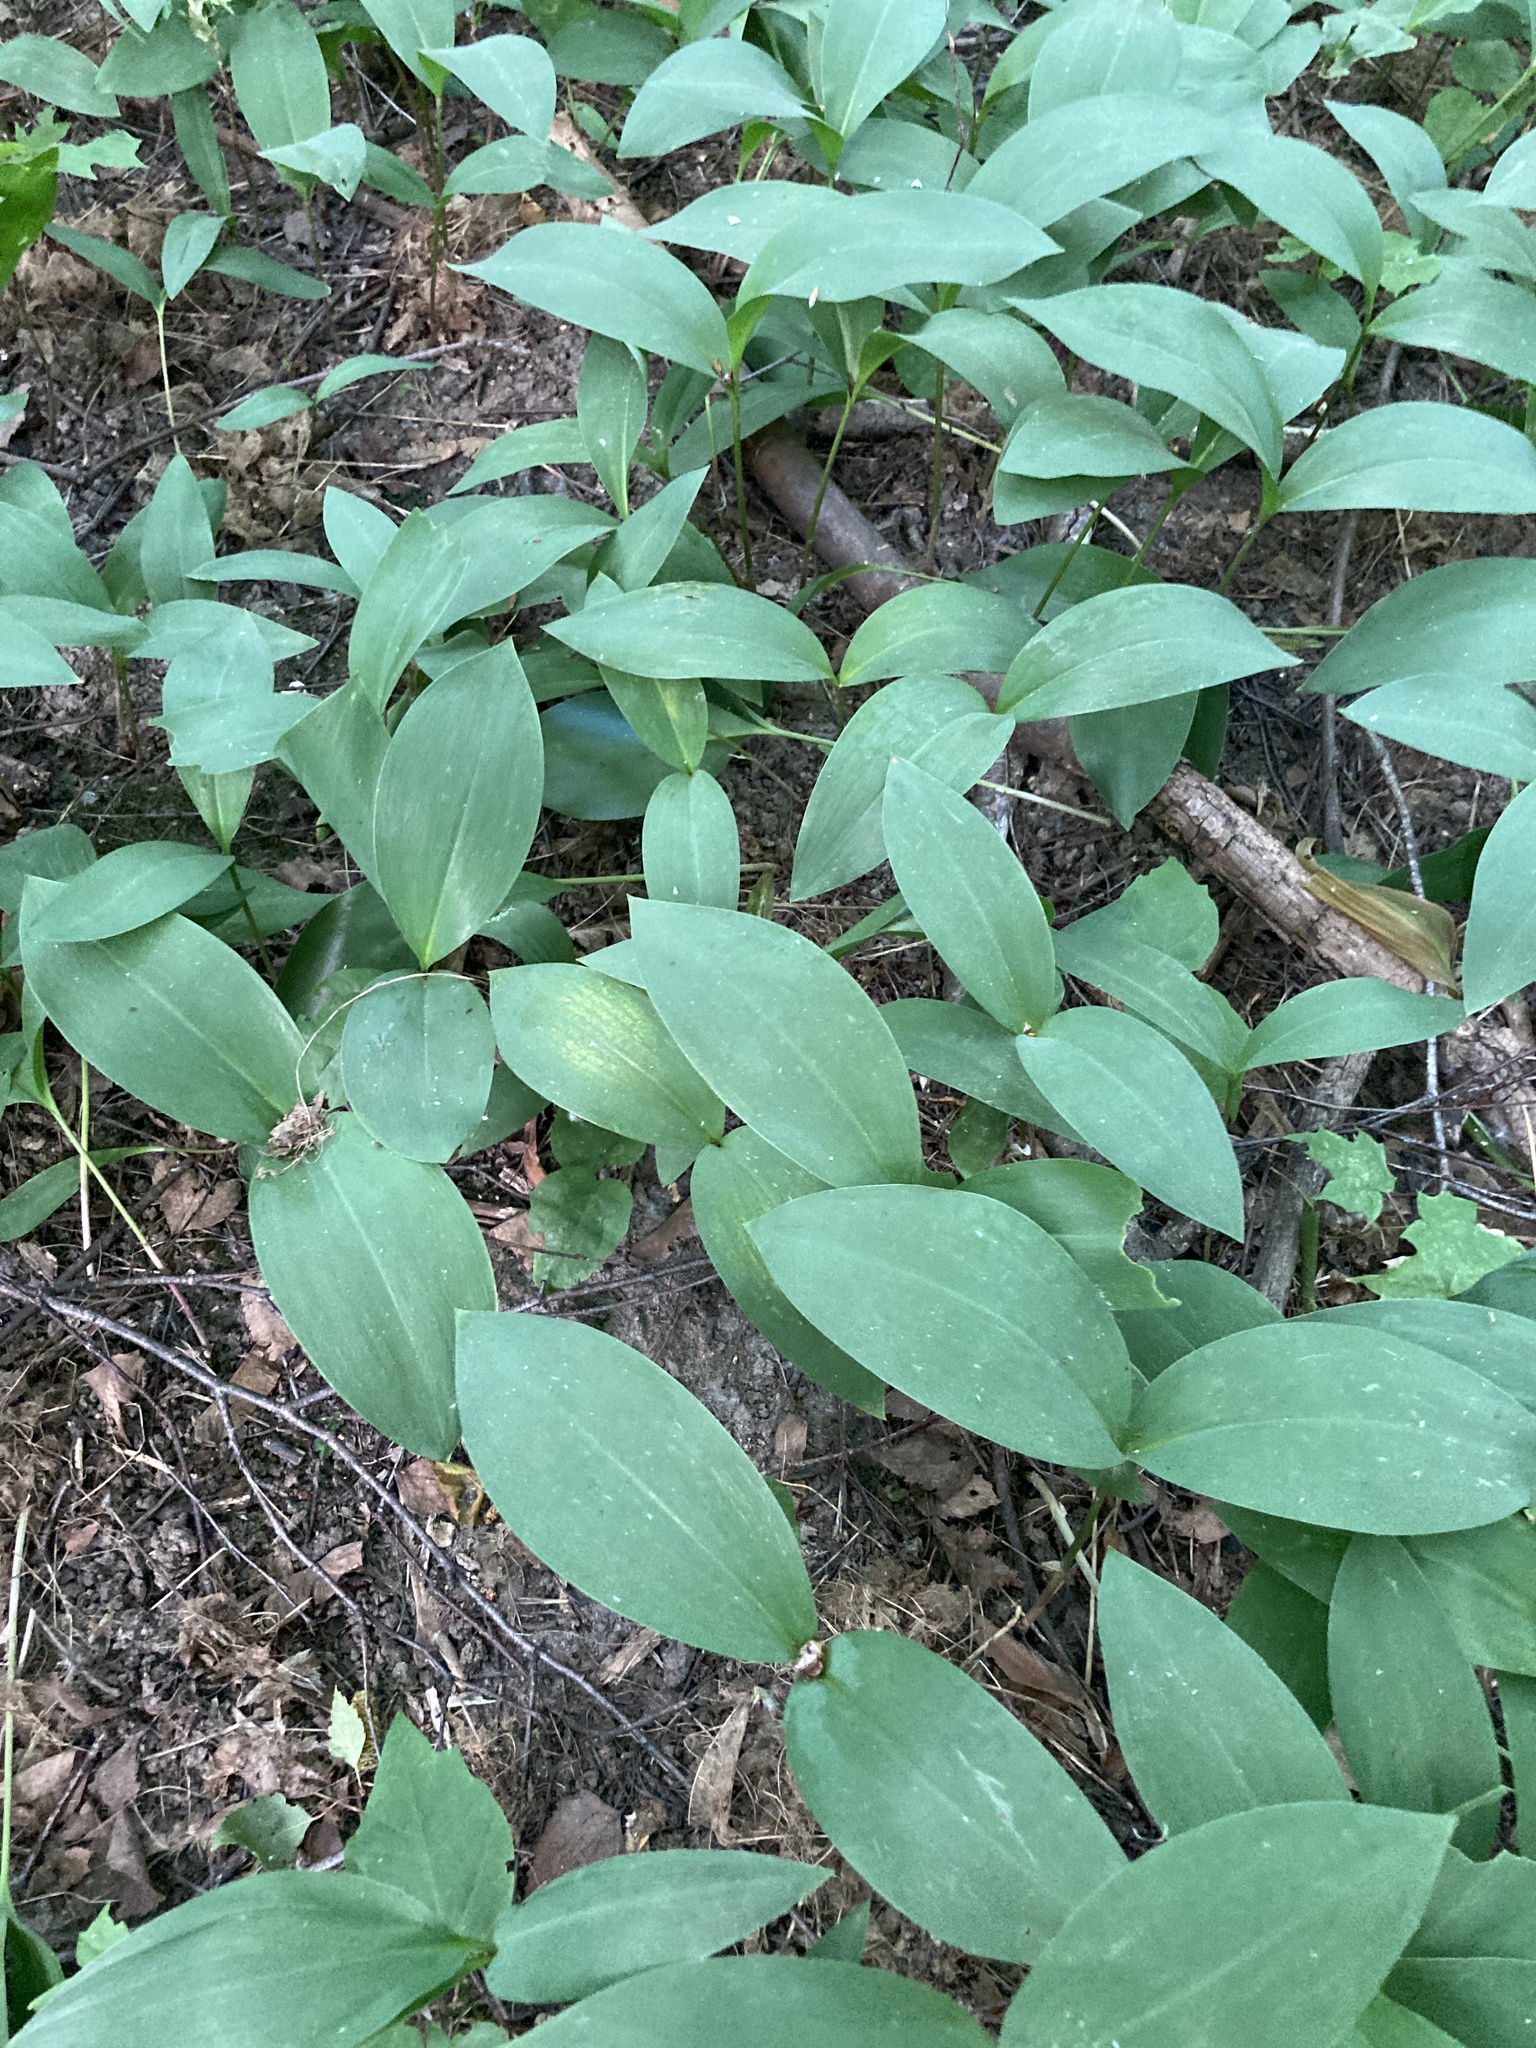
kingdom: Plantae
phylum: Tracheophyta
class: Liliopsida
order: Asparagales
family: Asparagaceae
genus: Convallaria
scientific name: Convallaria majalis
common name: Lily-of-the-valley
